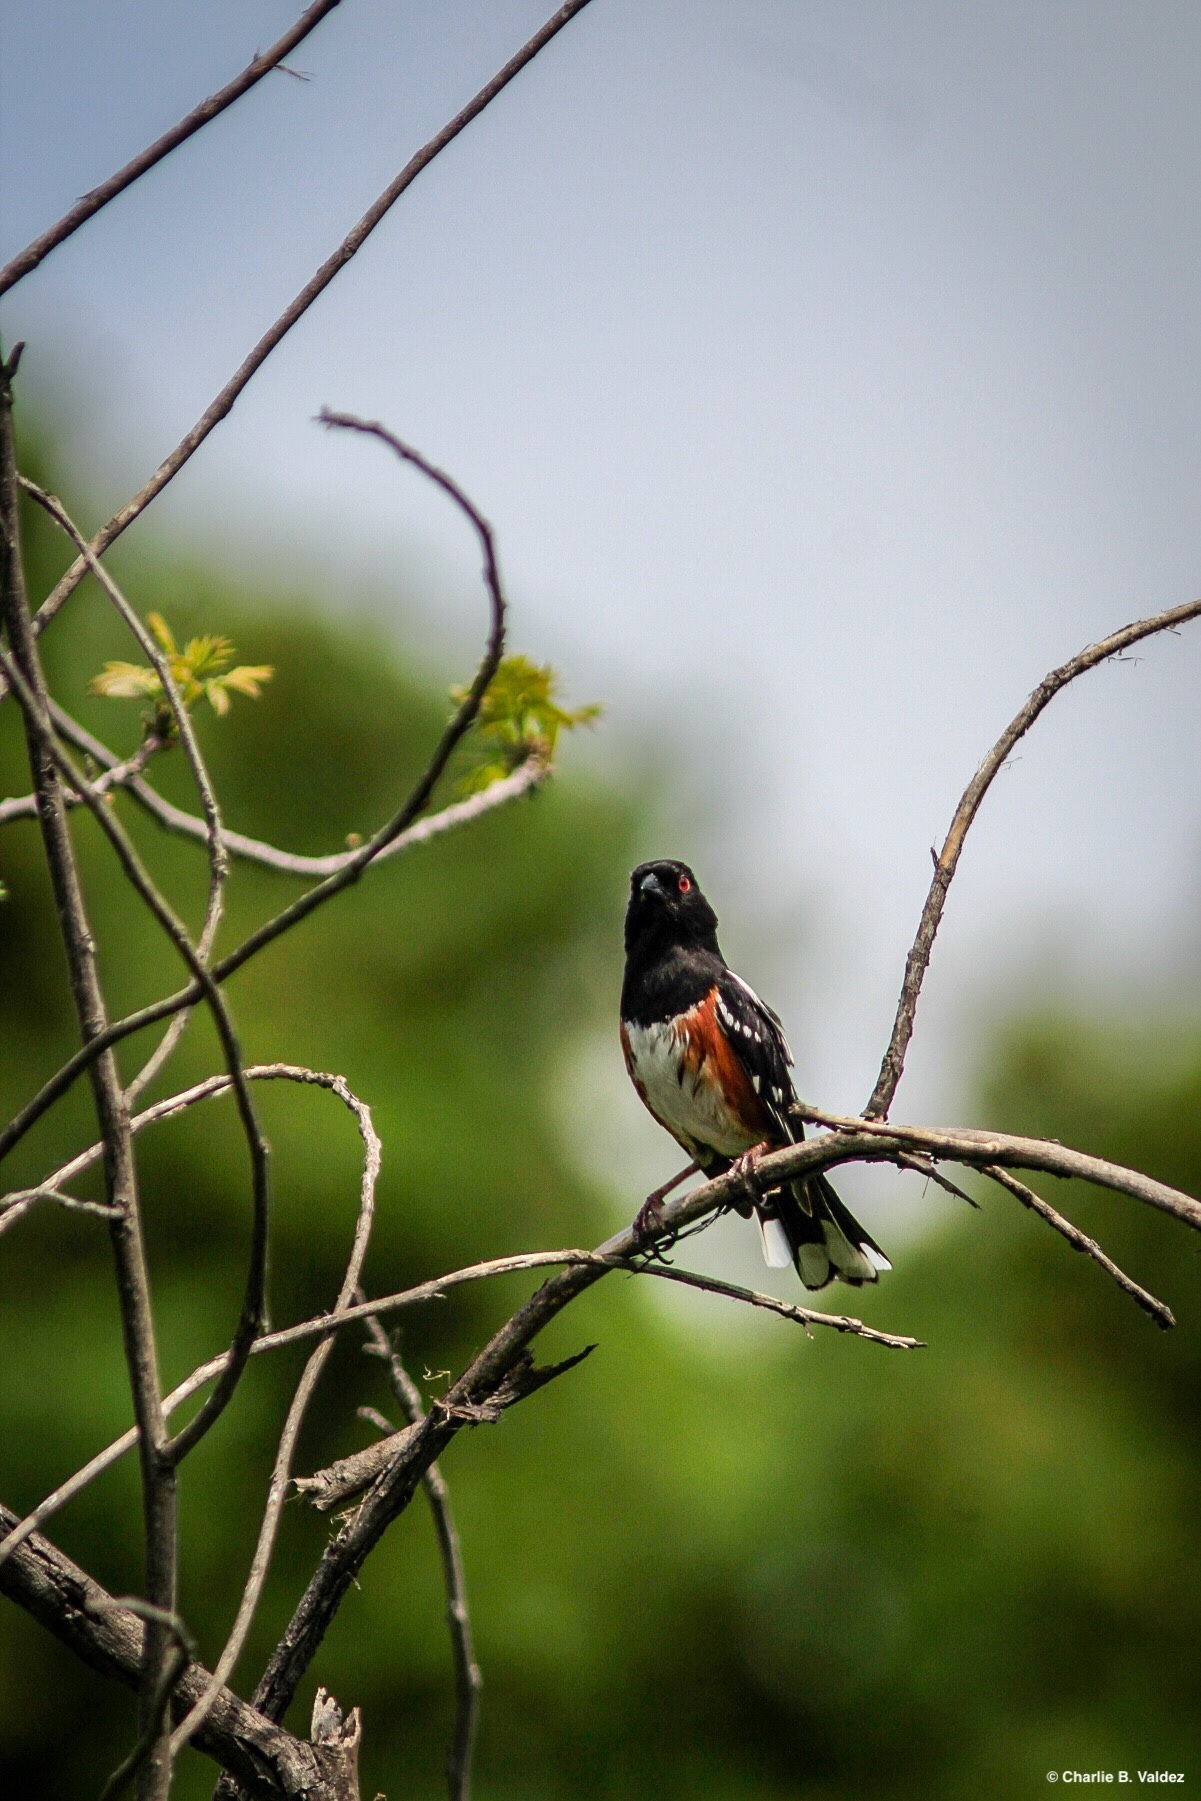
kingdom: Animalia
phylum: Chordata
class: Aves
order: Passeriformes
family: Passerellidae
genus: Pipilo
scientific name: Pipilo maculatus
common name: Spotted towhee
